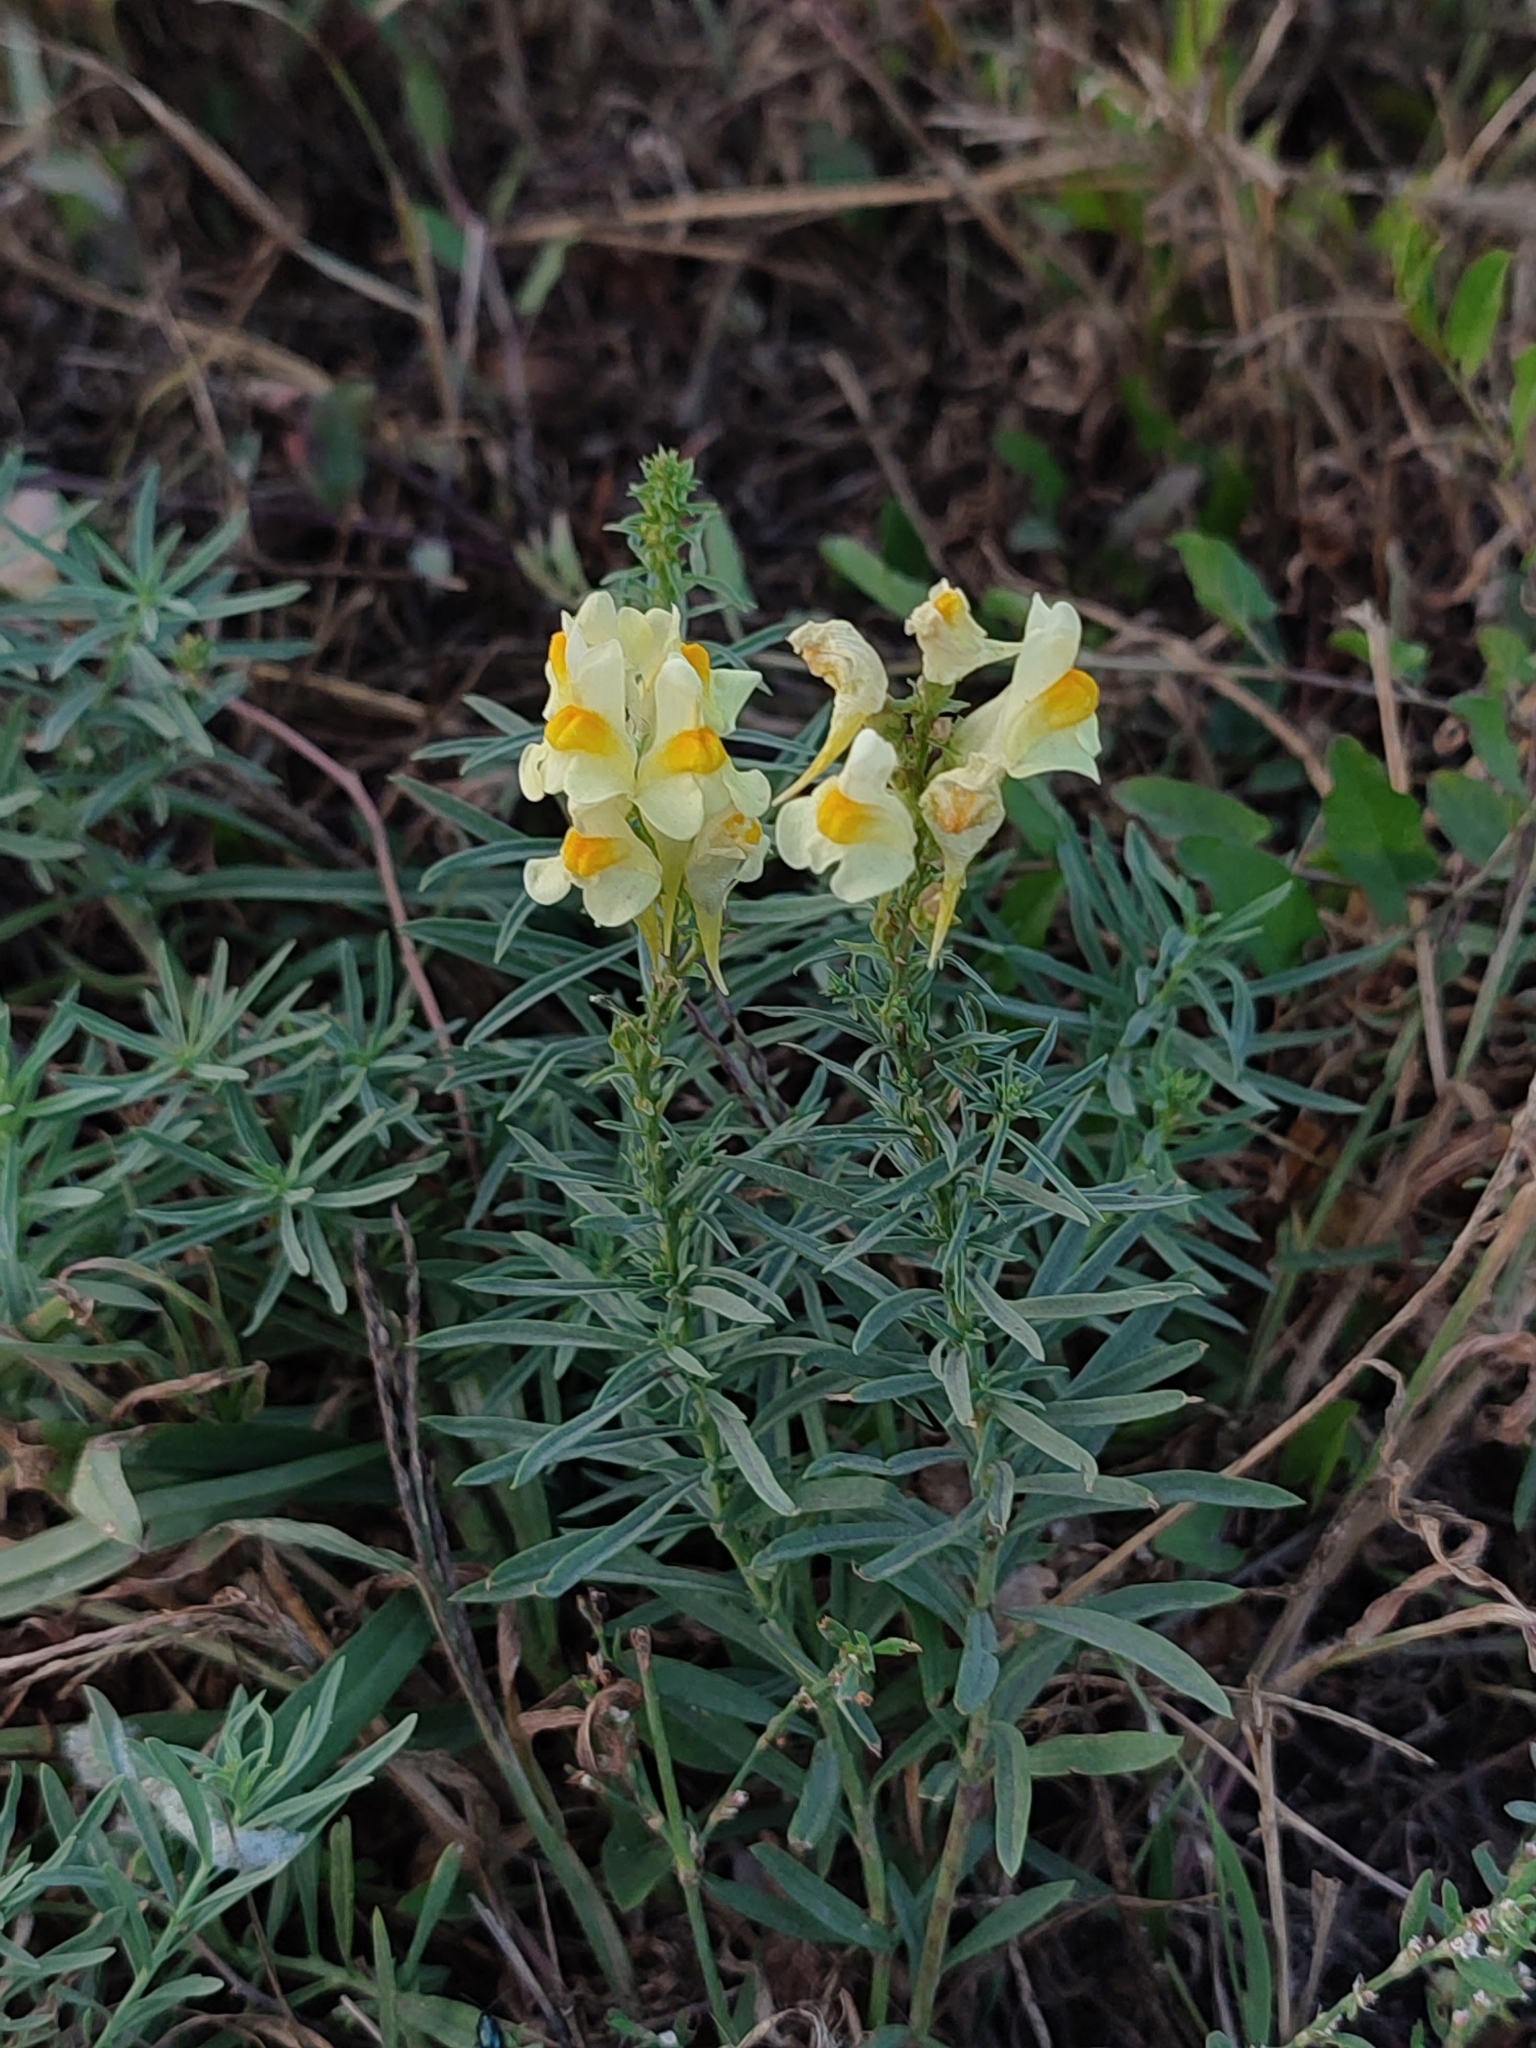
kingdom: Plantae
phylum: Tracheophyta
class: Magnoliopsida
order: Lamiales
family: Plantaginaceae
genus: Linaria
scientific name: Linaria vulgaris
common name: Butter and eggs
